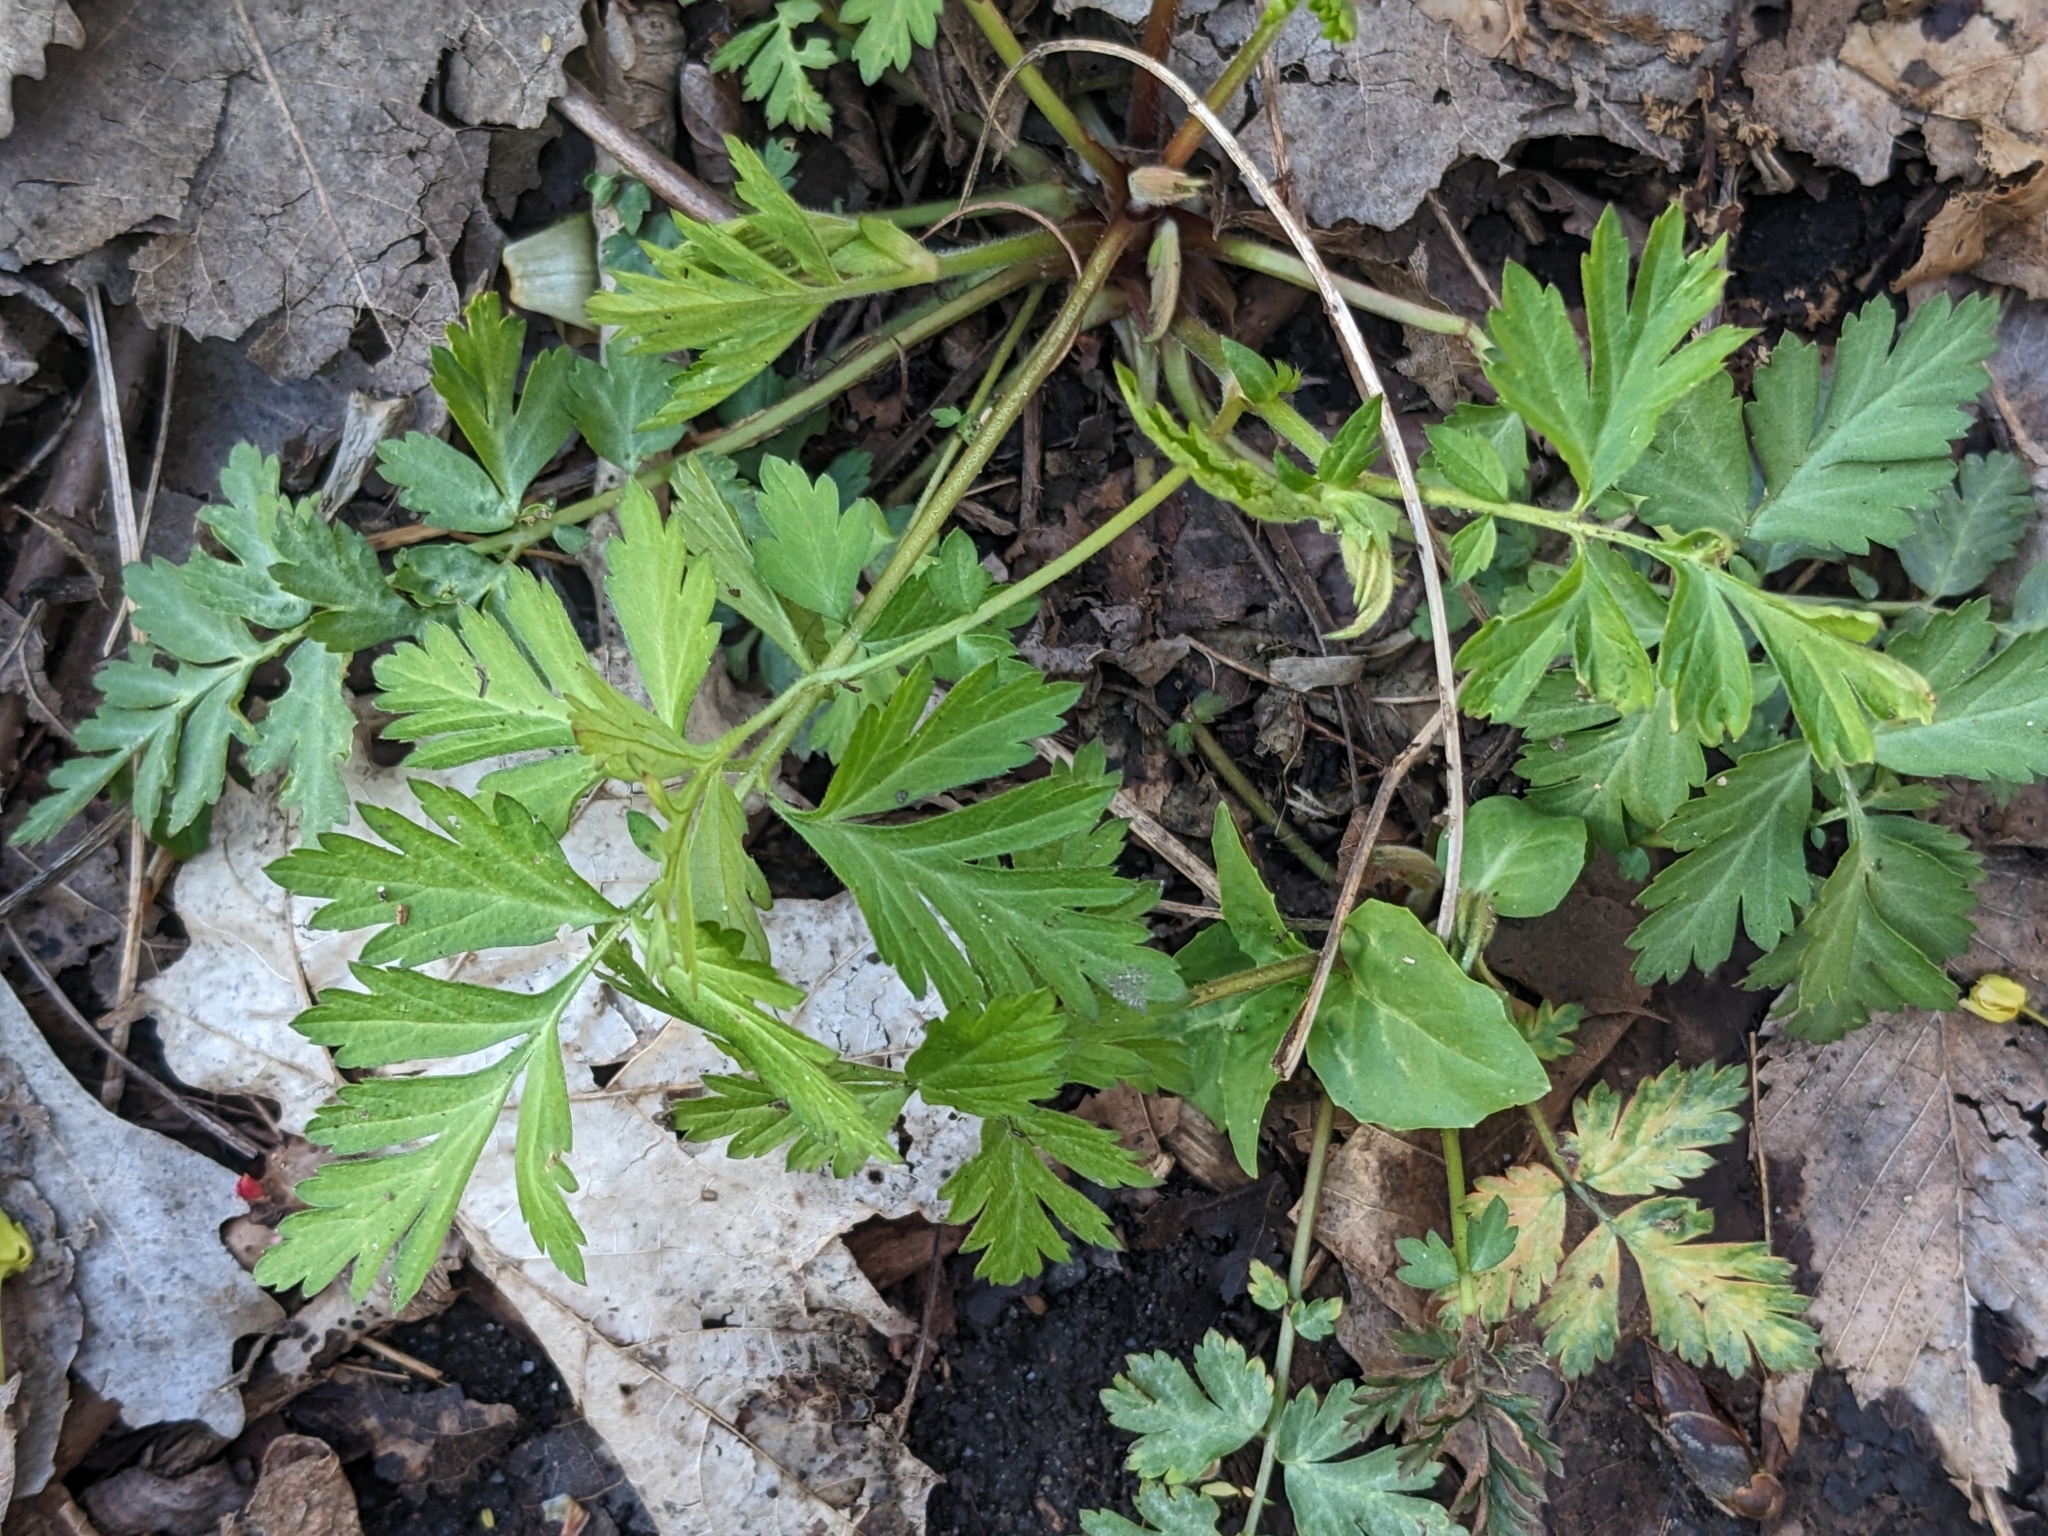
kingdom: Plantae
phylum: Tracheophyta
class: Magnoliopsida
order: Rosales
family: Rosaceae
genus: Geum
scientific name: Geum canadense
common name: White avens
